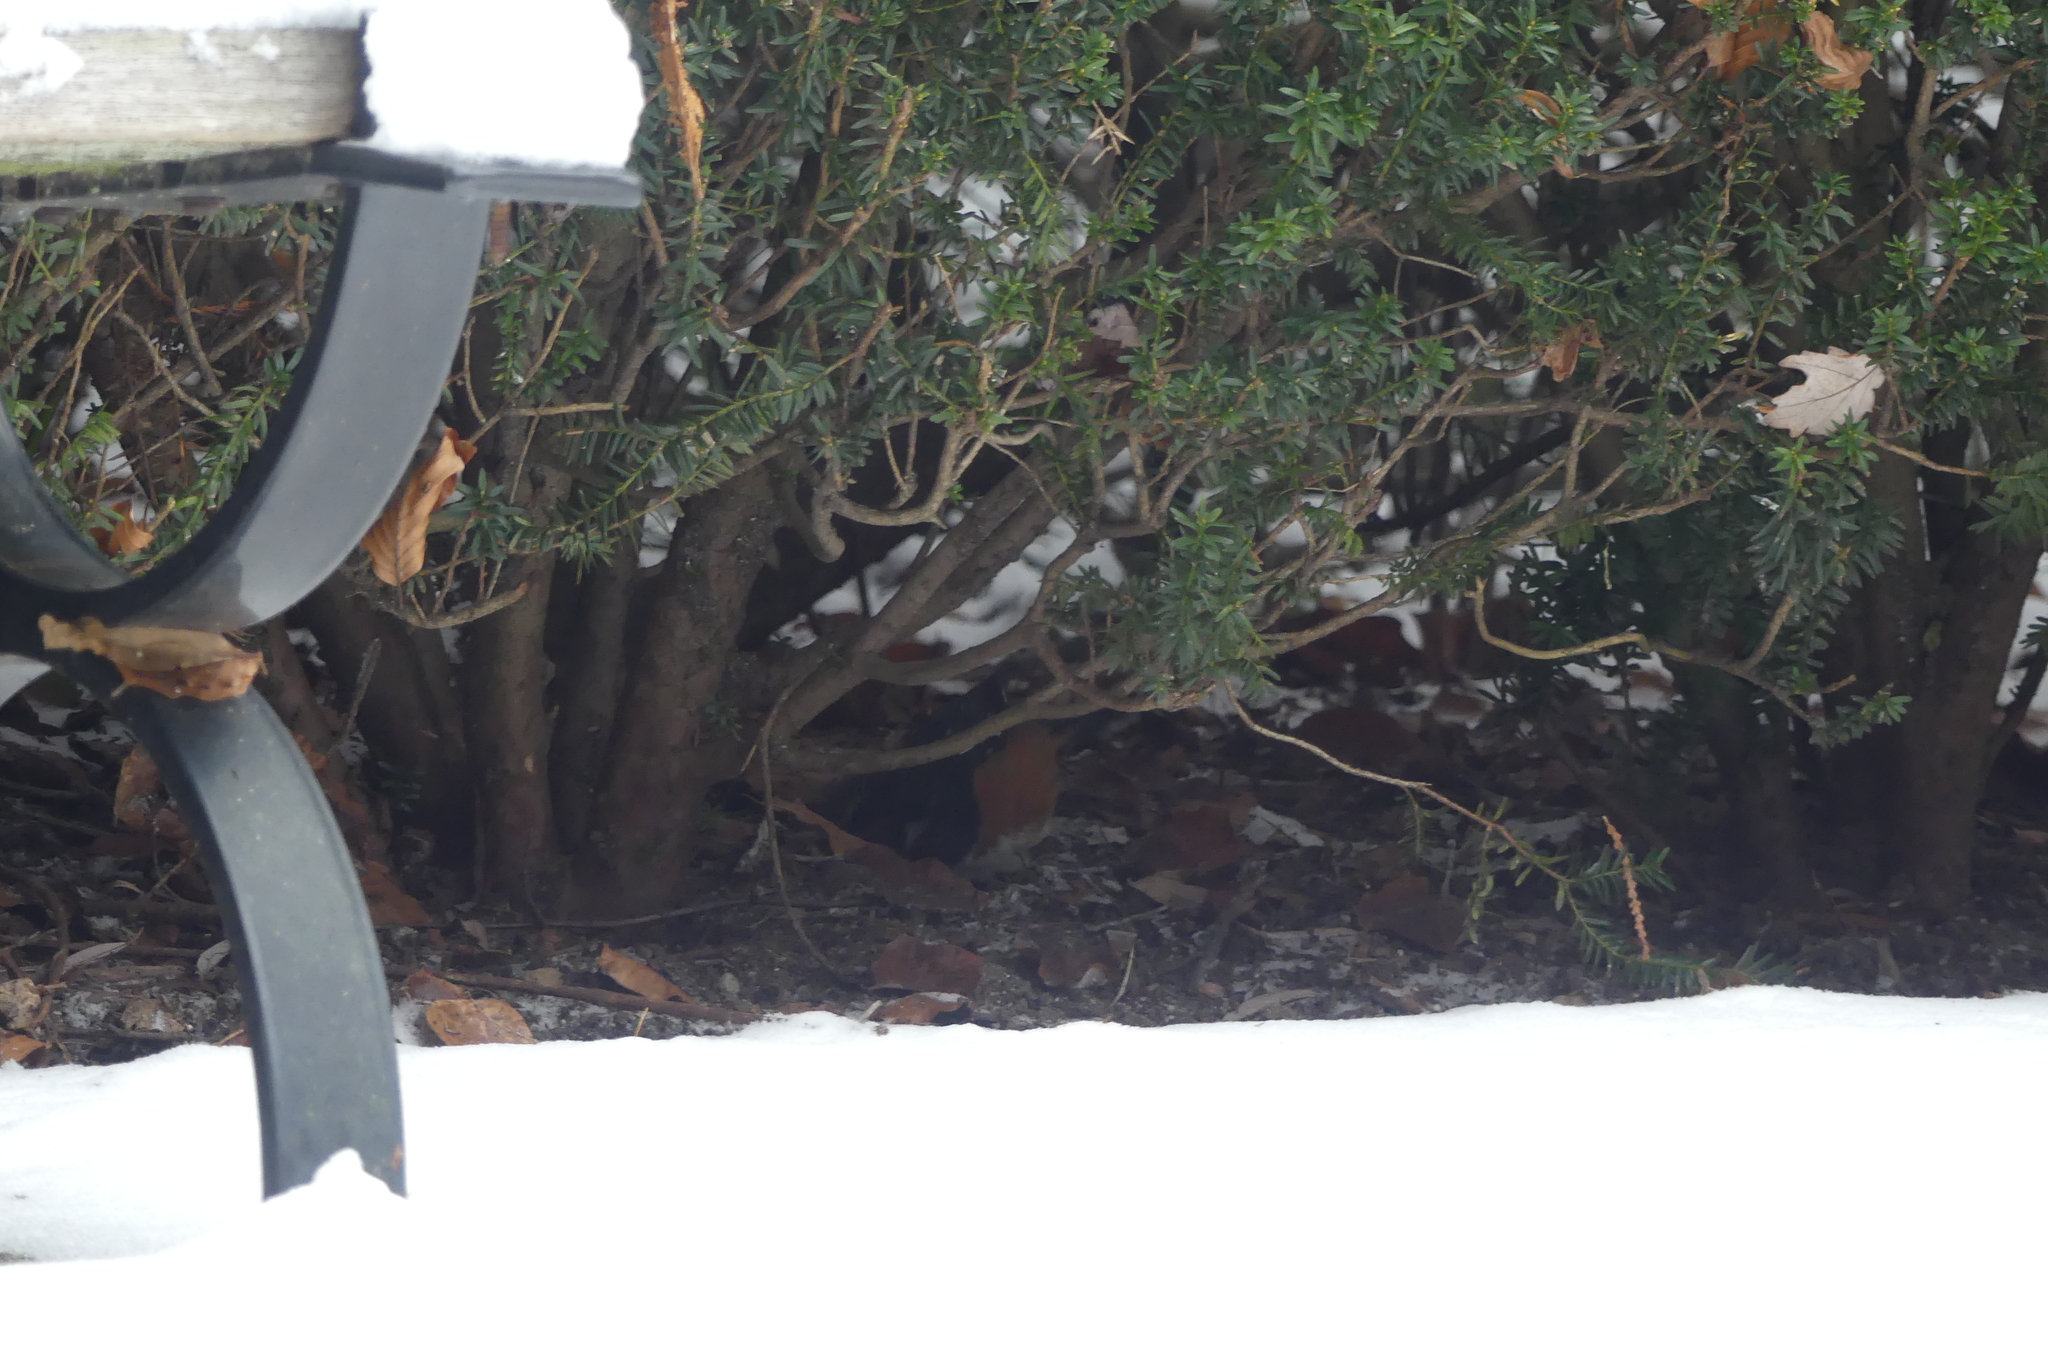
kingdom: Animalia
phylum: Chordata
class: Aves
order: Passeriformes
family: Passerellidae
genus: Pipilo
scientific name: Pipilo maculatus
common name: Spotted towhee
